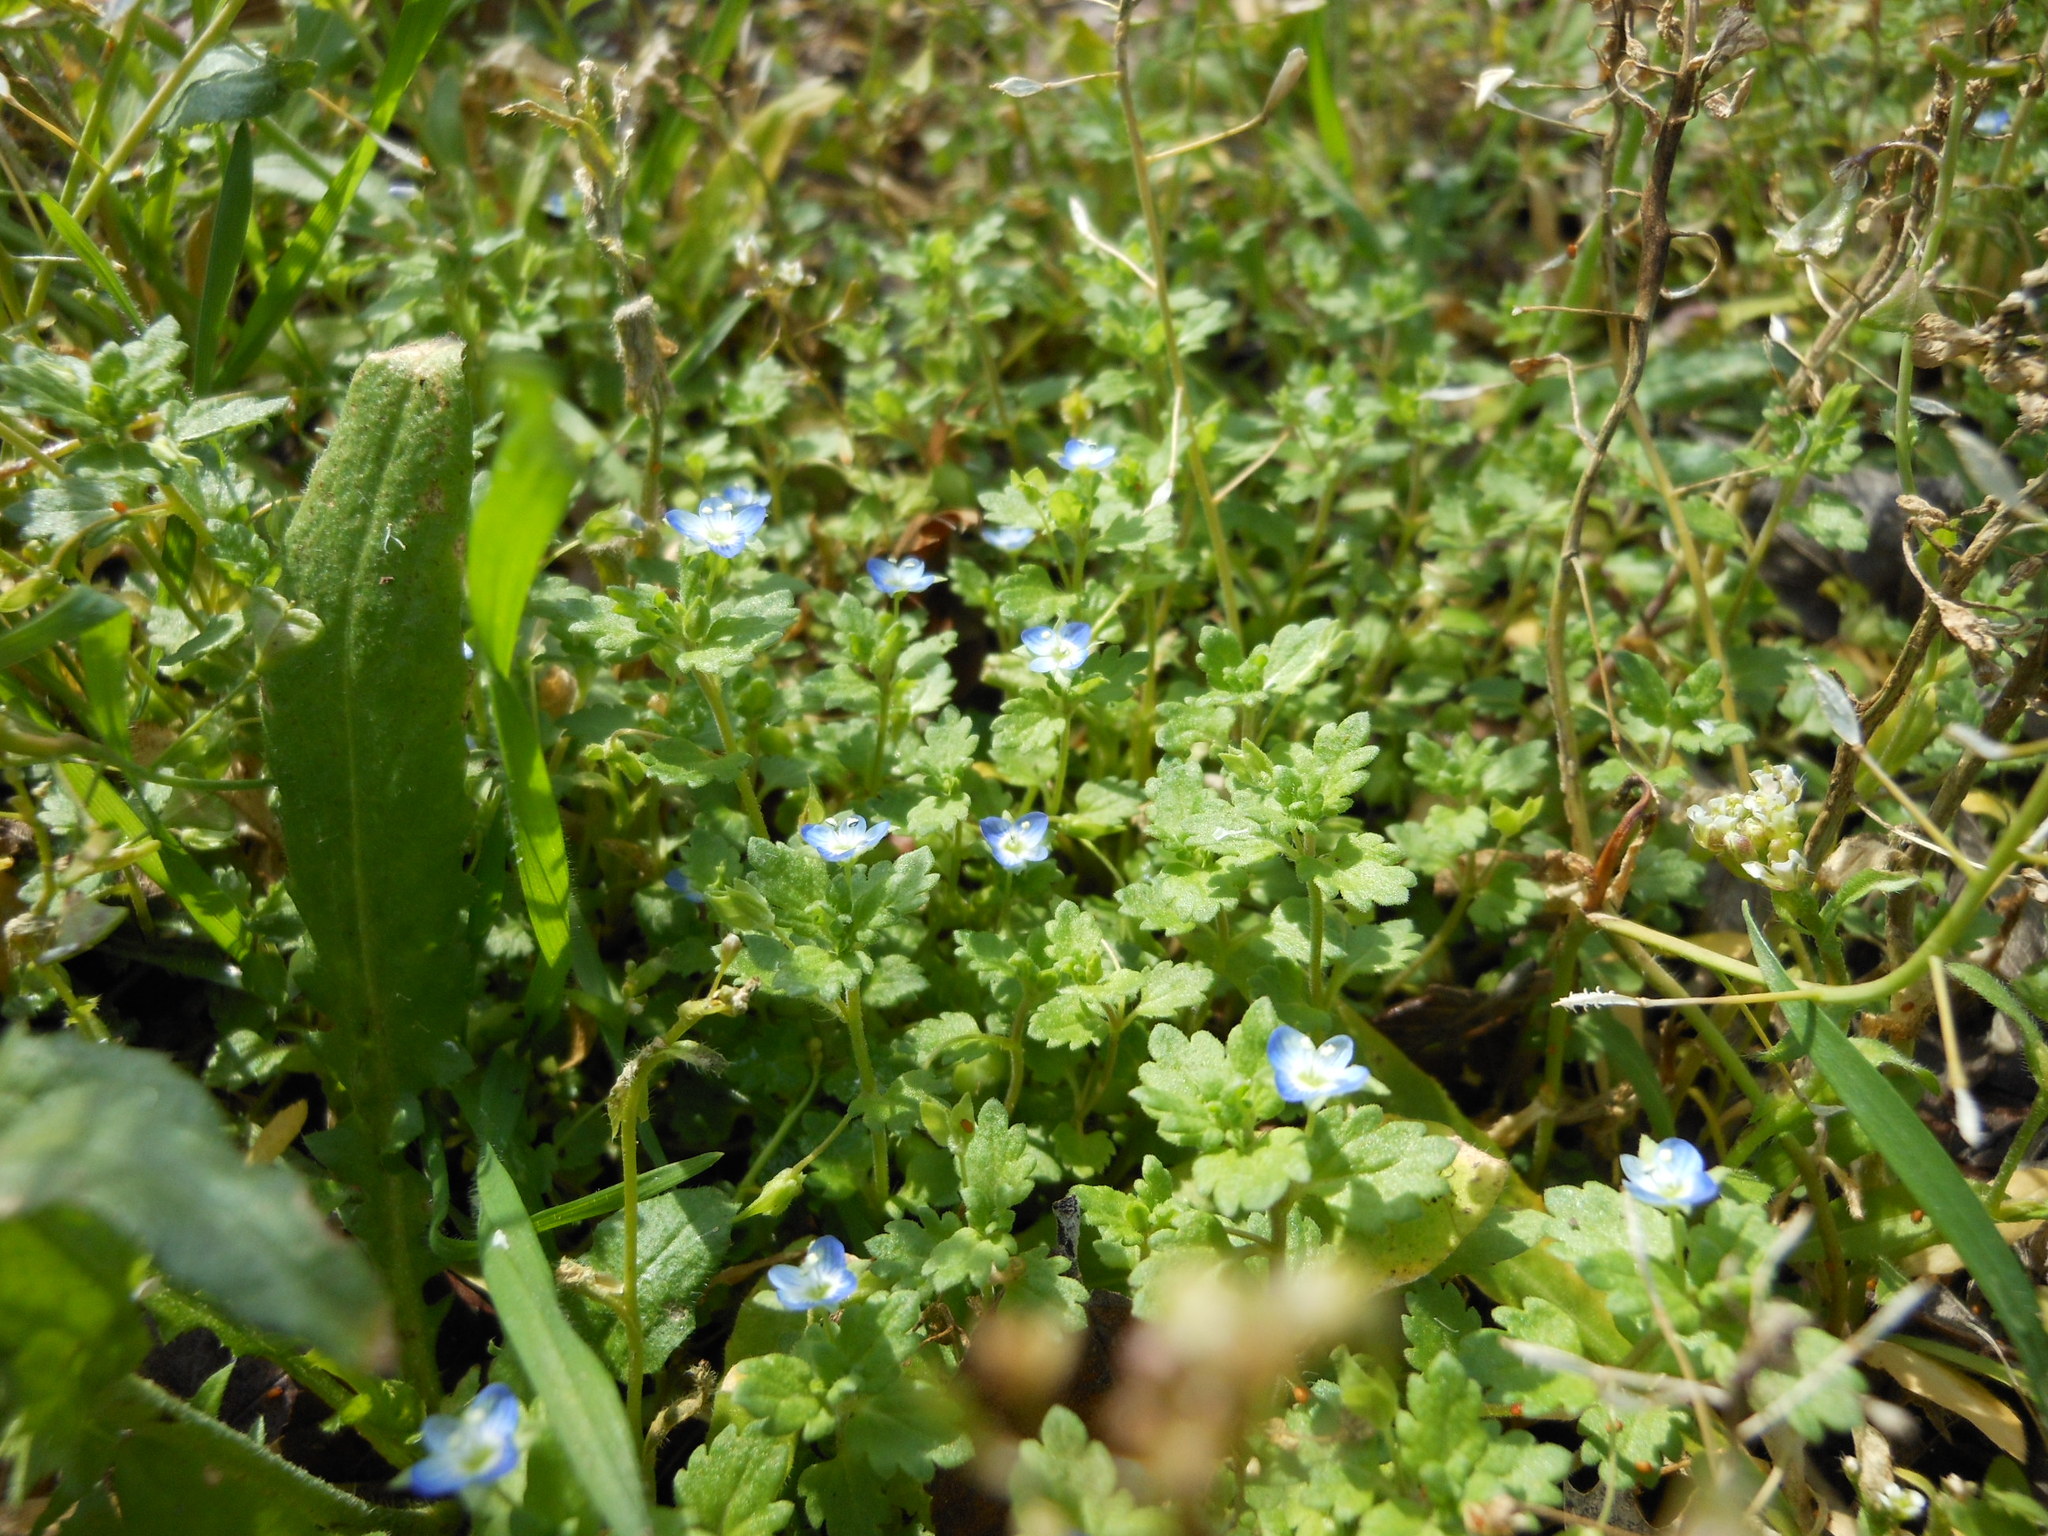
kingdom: Plantae
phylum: Tracheophyta
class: Magnoliopsida
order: Lamiales
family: Plantaginaceae
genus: Veronica
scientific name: Veronica persica
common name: Common field-speedwell
